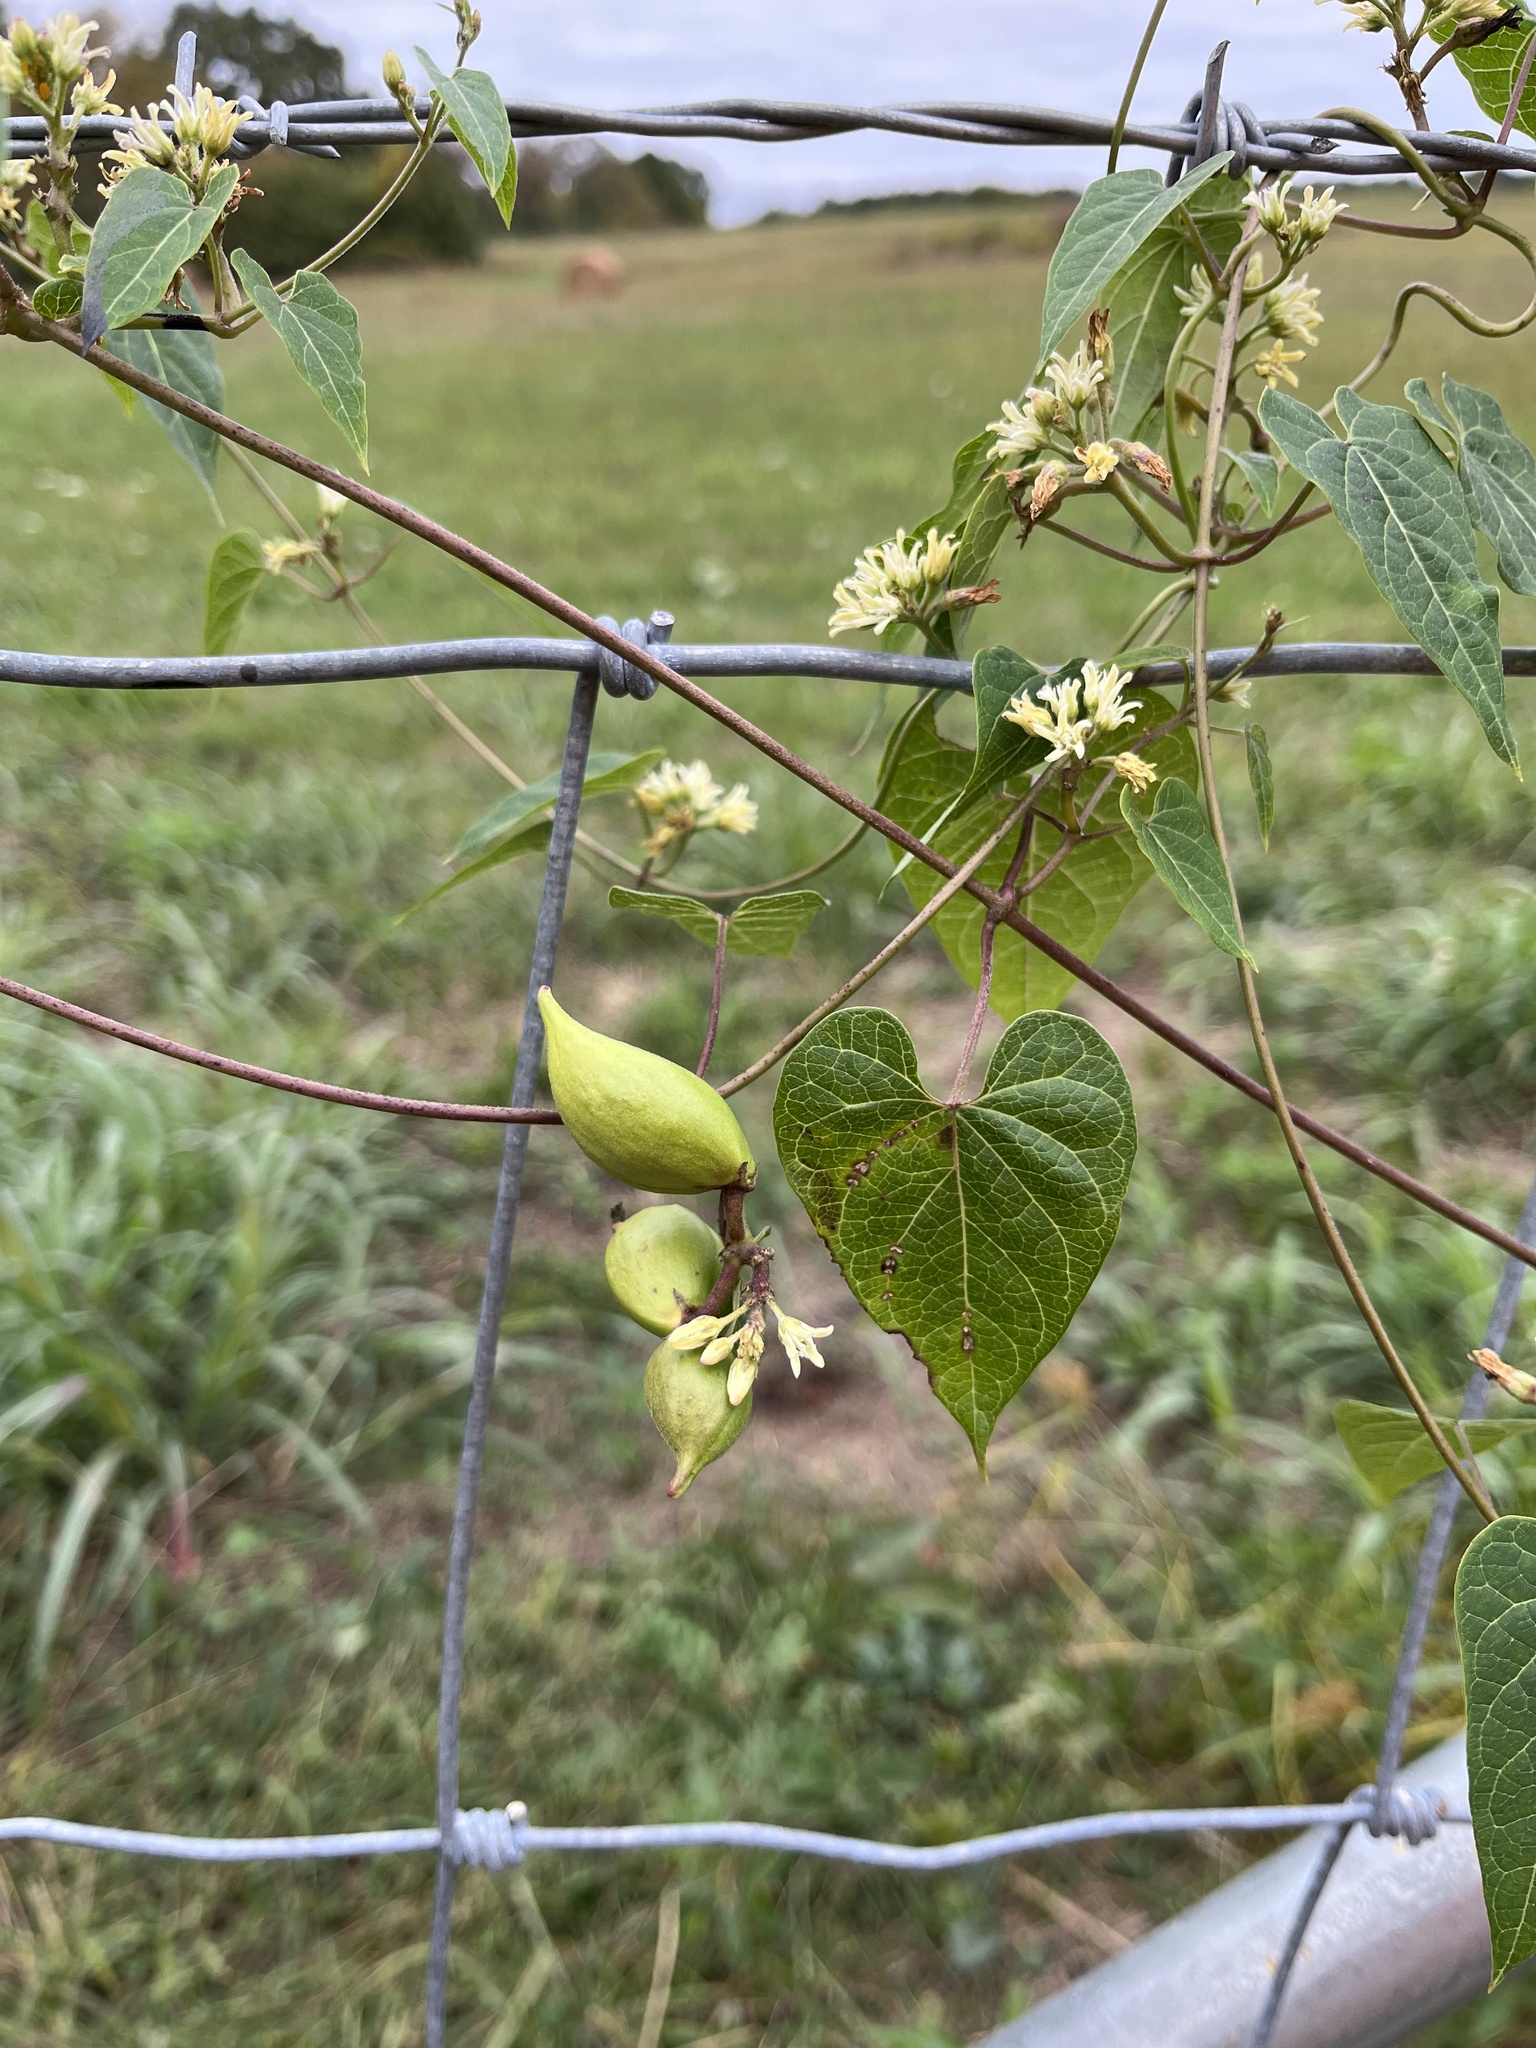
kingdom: Plantae
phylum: Tracheophyta
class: Magnoliopsida
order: Gentianales
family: Apocynaceae
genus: Cynanchum
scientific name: Cynanchum laeve
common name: Sandvine
